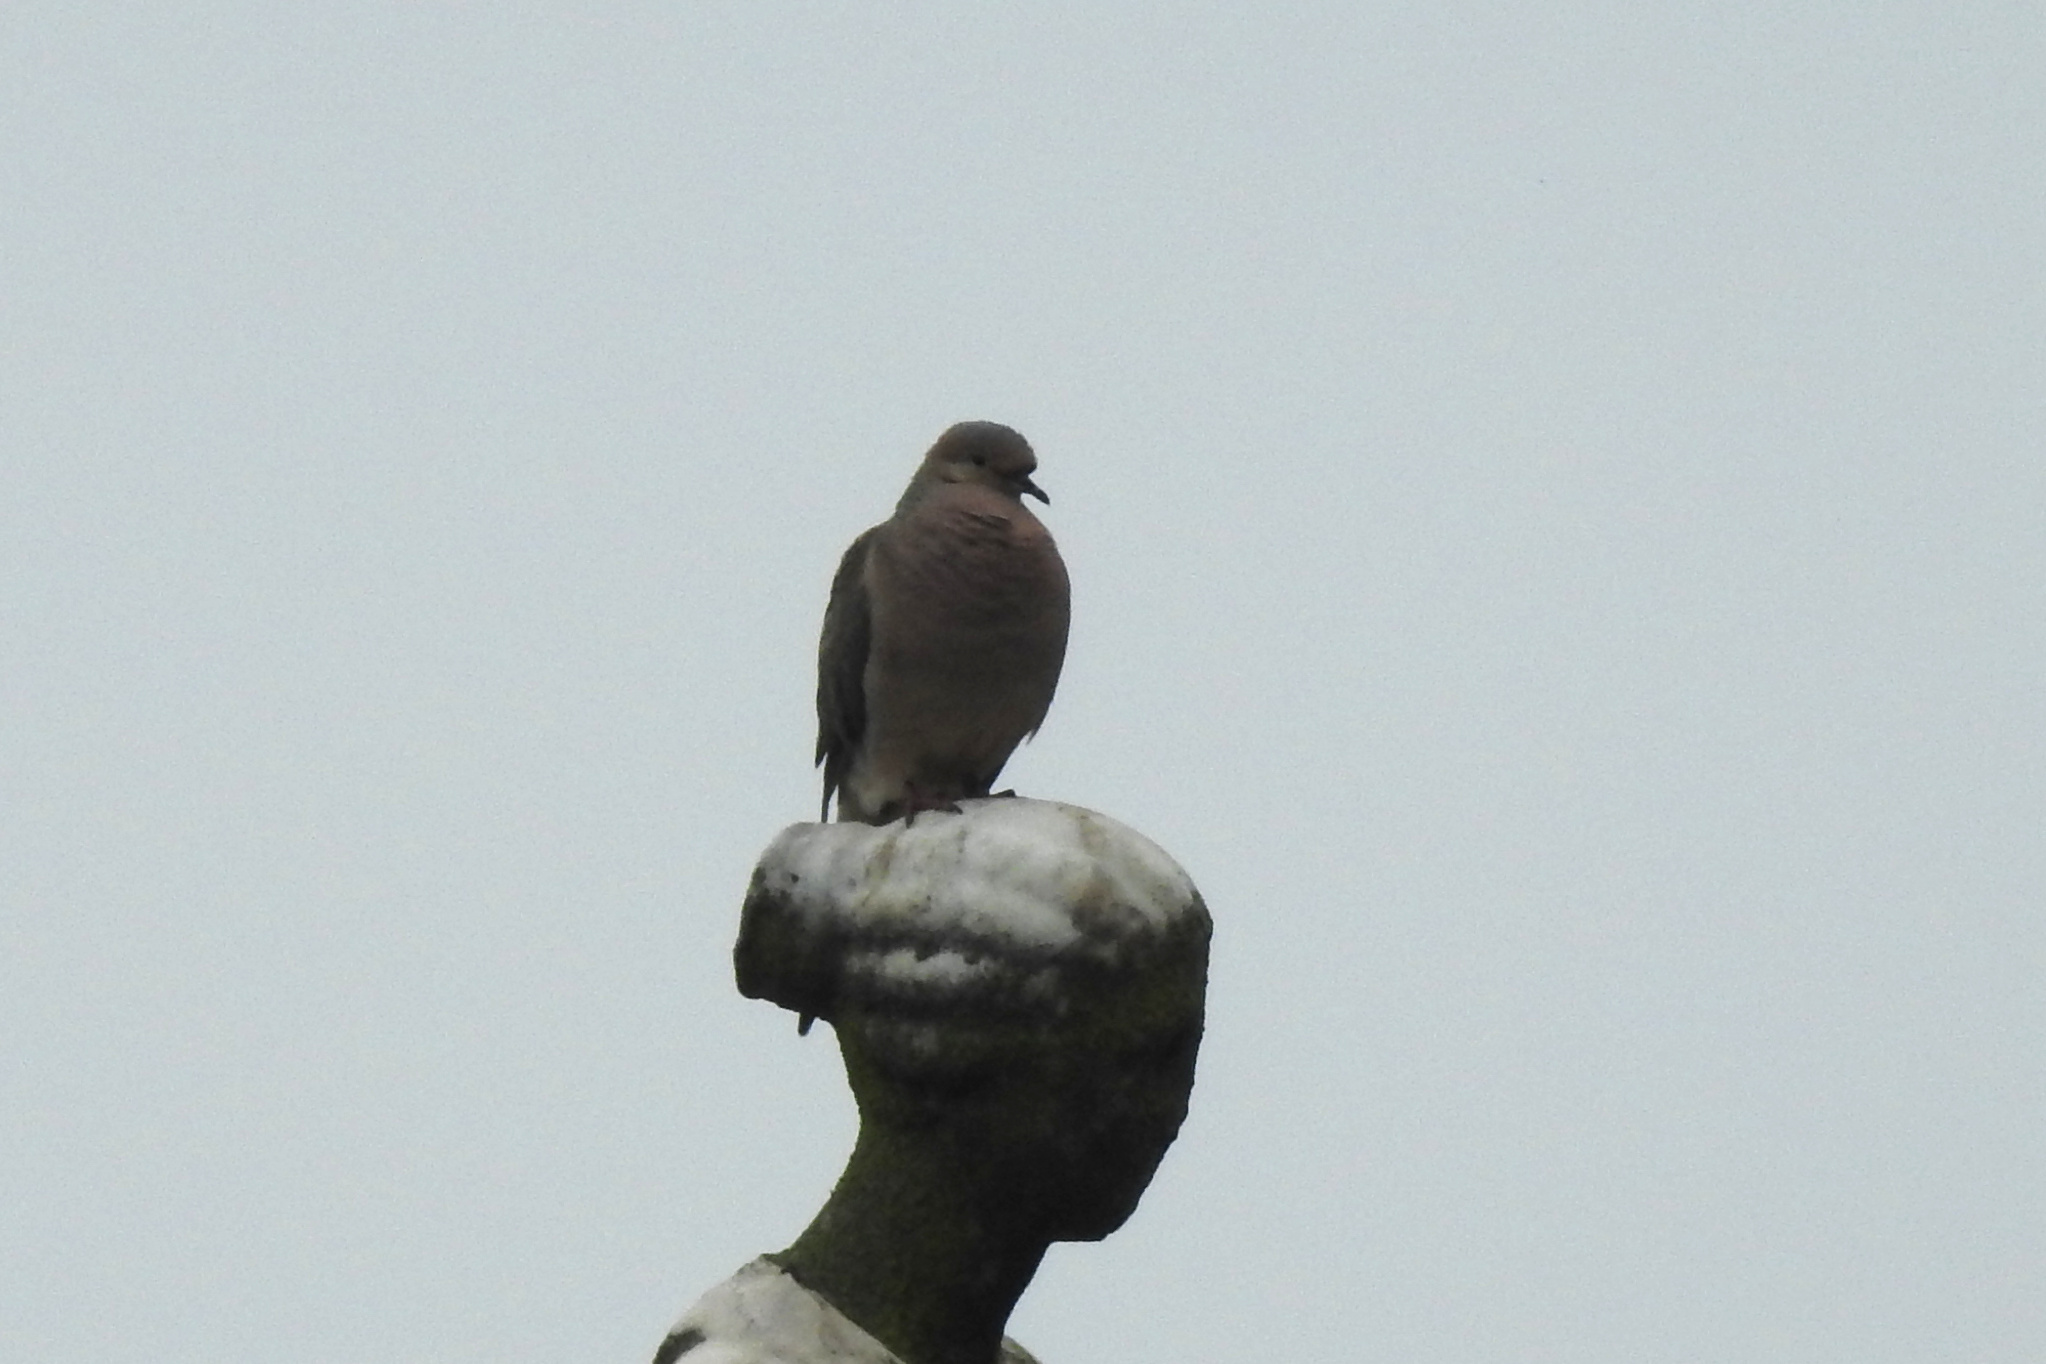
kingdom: Animalia
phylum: Chordata
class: Aves
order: Columbiformes
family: Columbidae
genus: Zenaida
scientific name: Zenaida macroura
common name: Mourning dove
